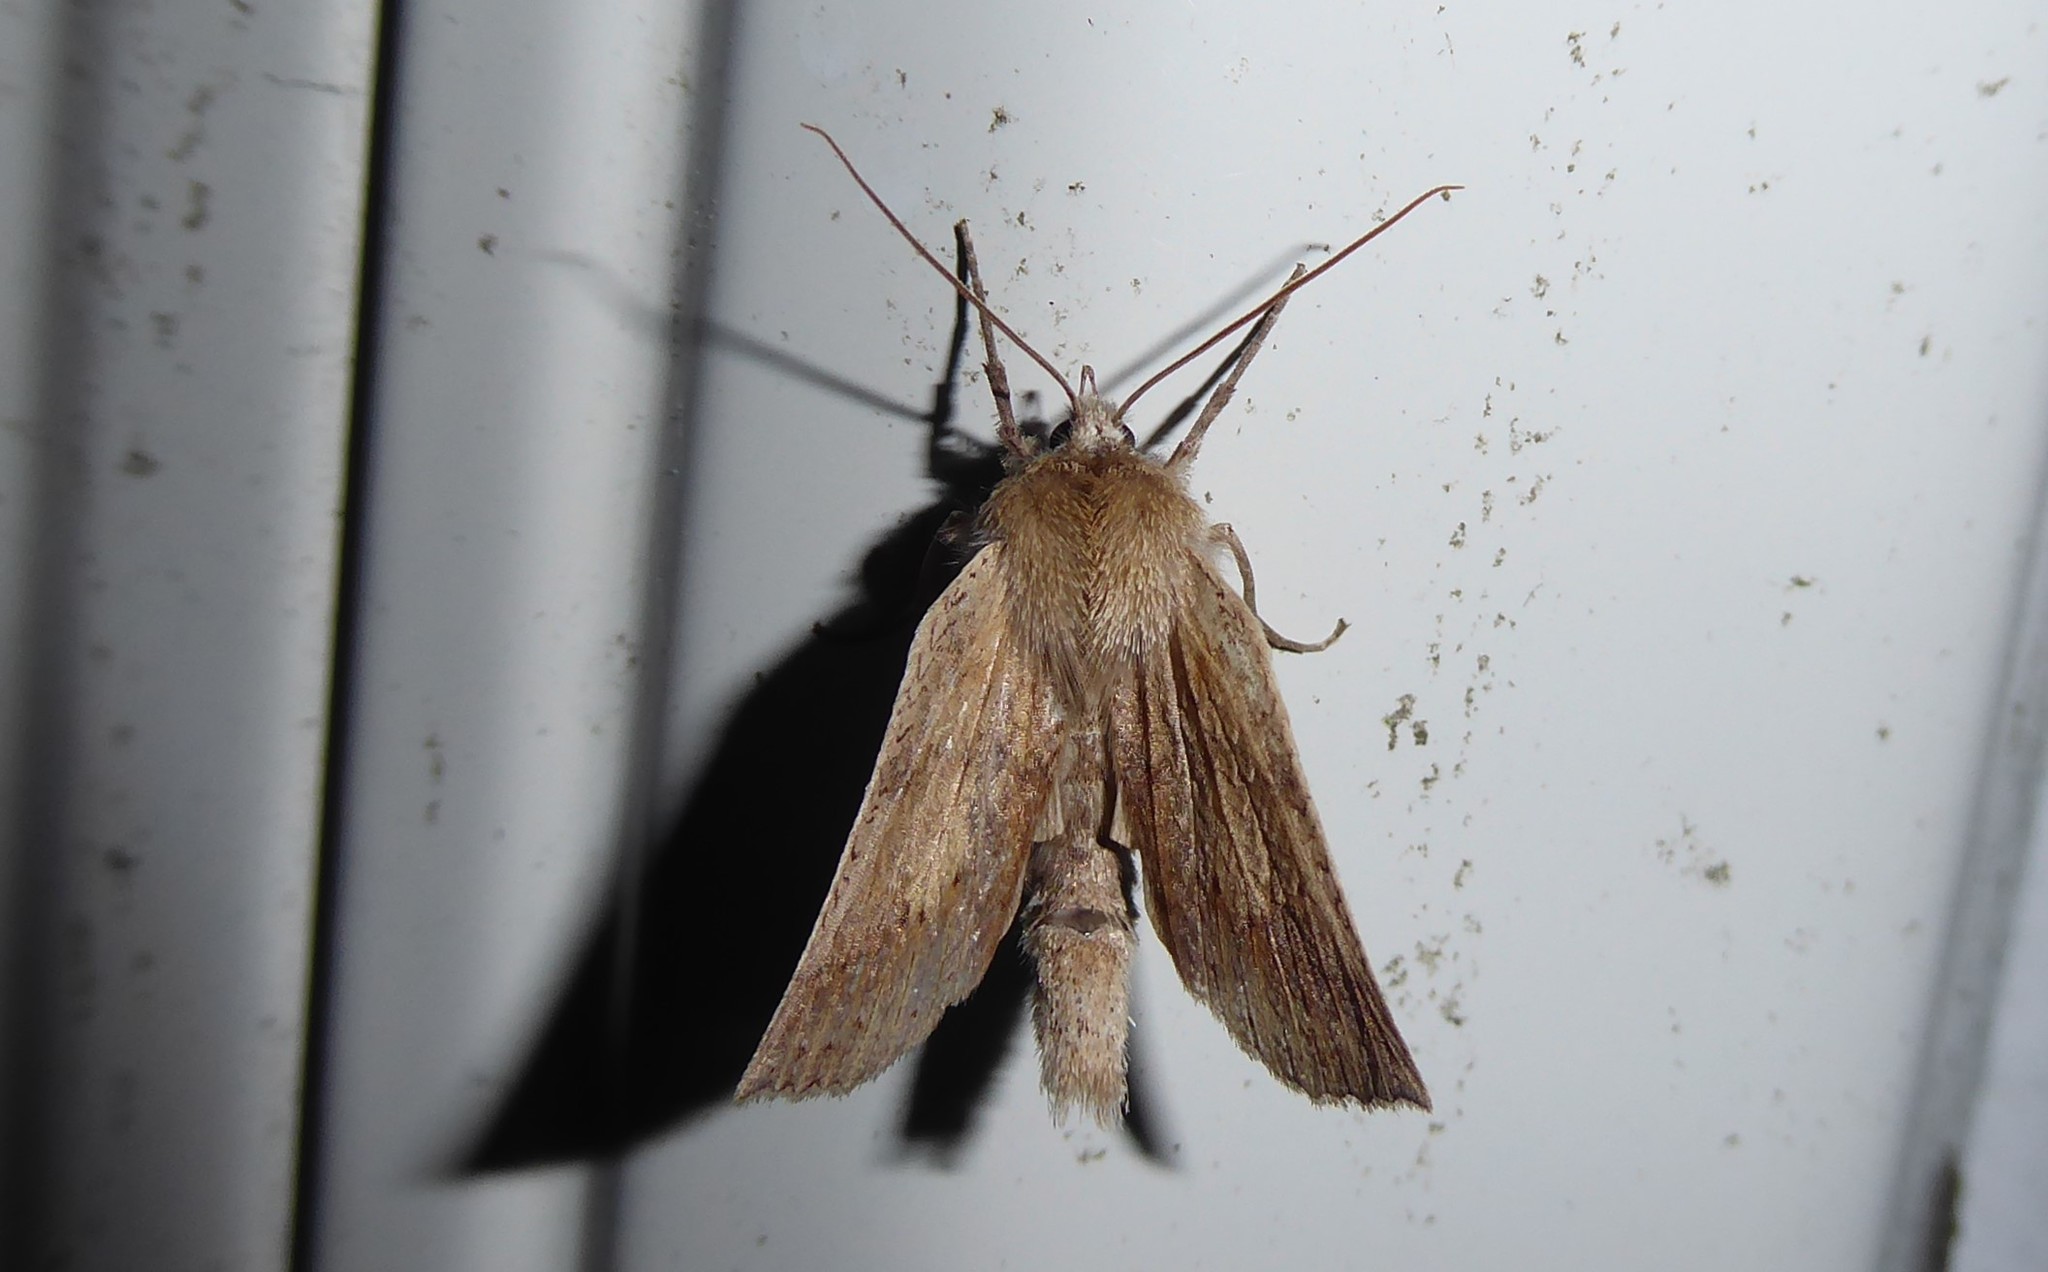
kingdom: Animalia
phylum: Arthropoda
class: Insecta
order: Lepidoptera
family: Geometridae
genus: Declana
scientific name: Declana leptomera
